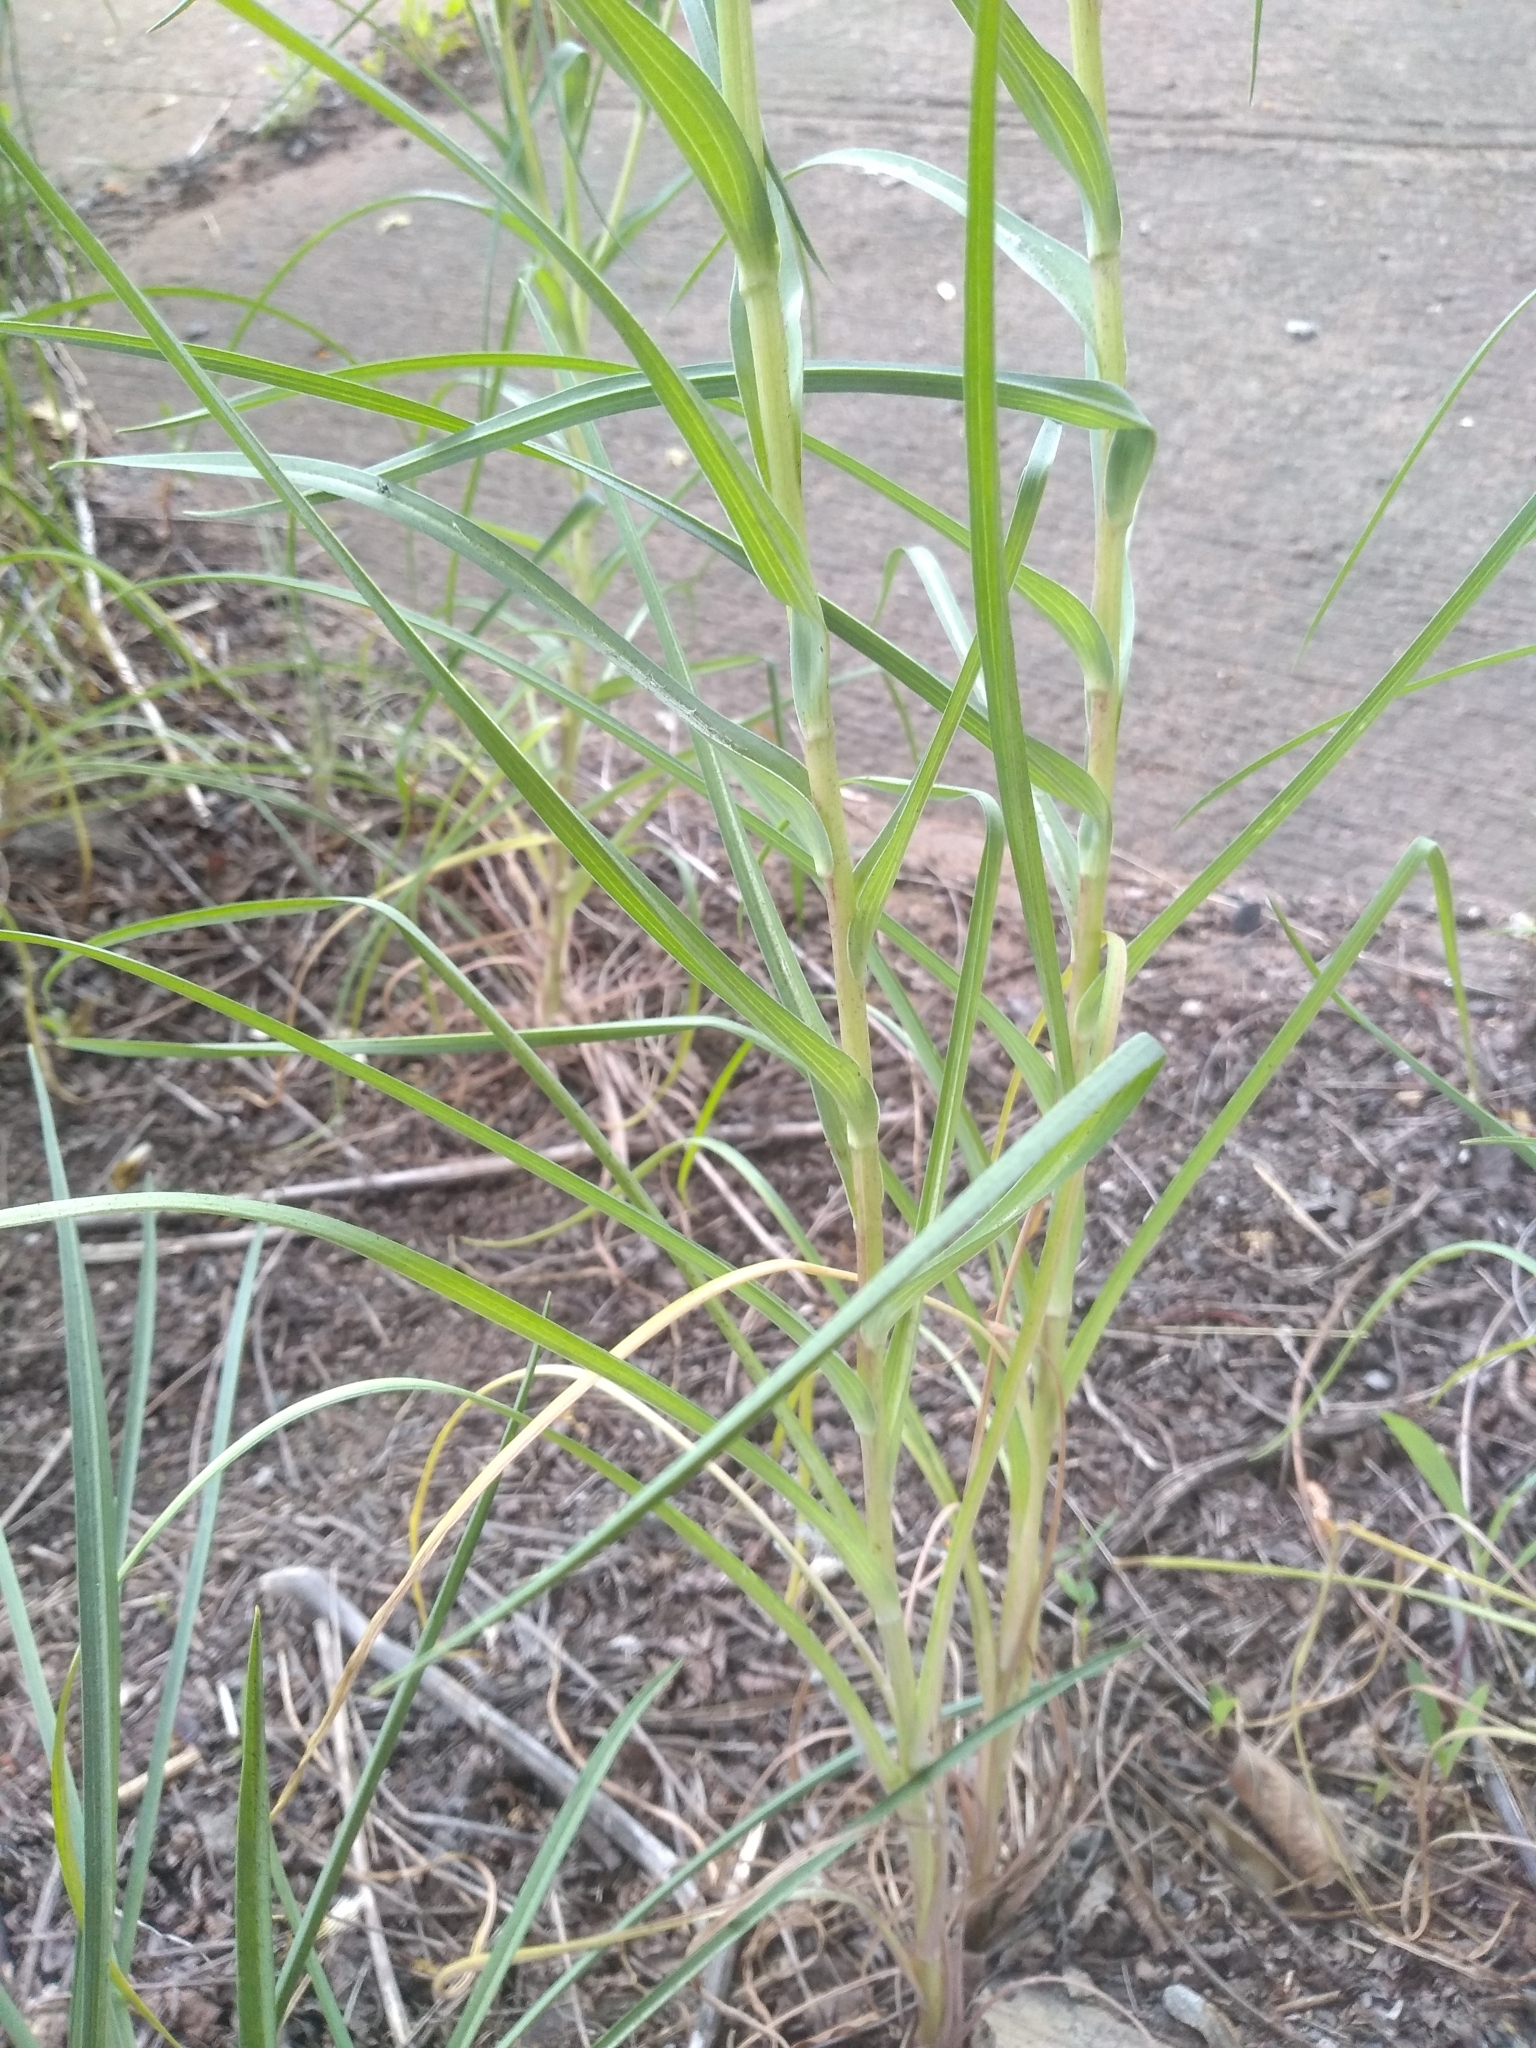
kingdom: Plantae
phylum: Tracheophyta
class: Magnoliopsida
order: Asterales
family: Asteraceae
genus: Tragopogon
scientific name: Tragopogon dubius
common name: Yellow salsify
